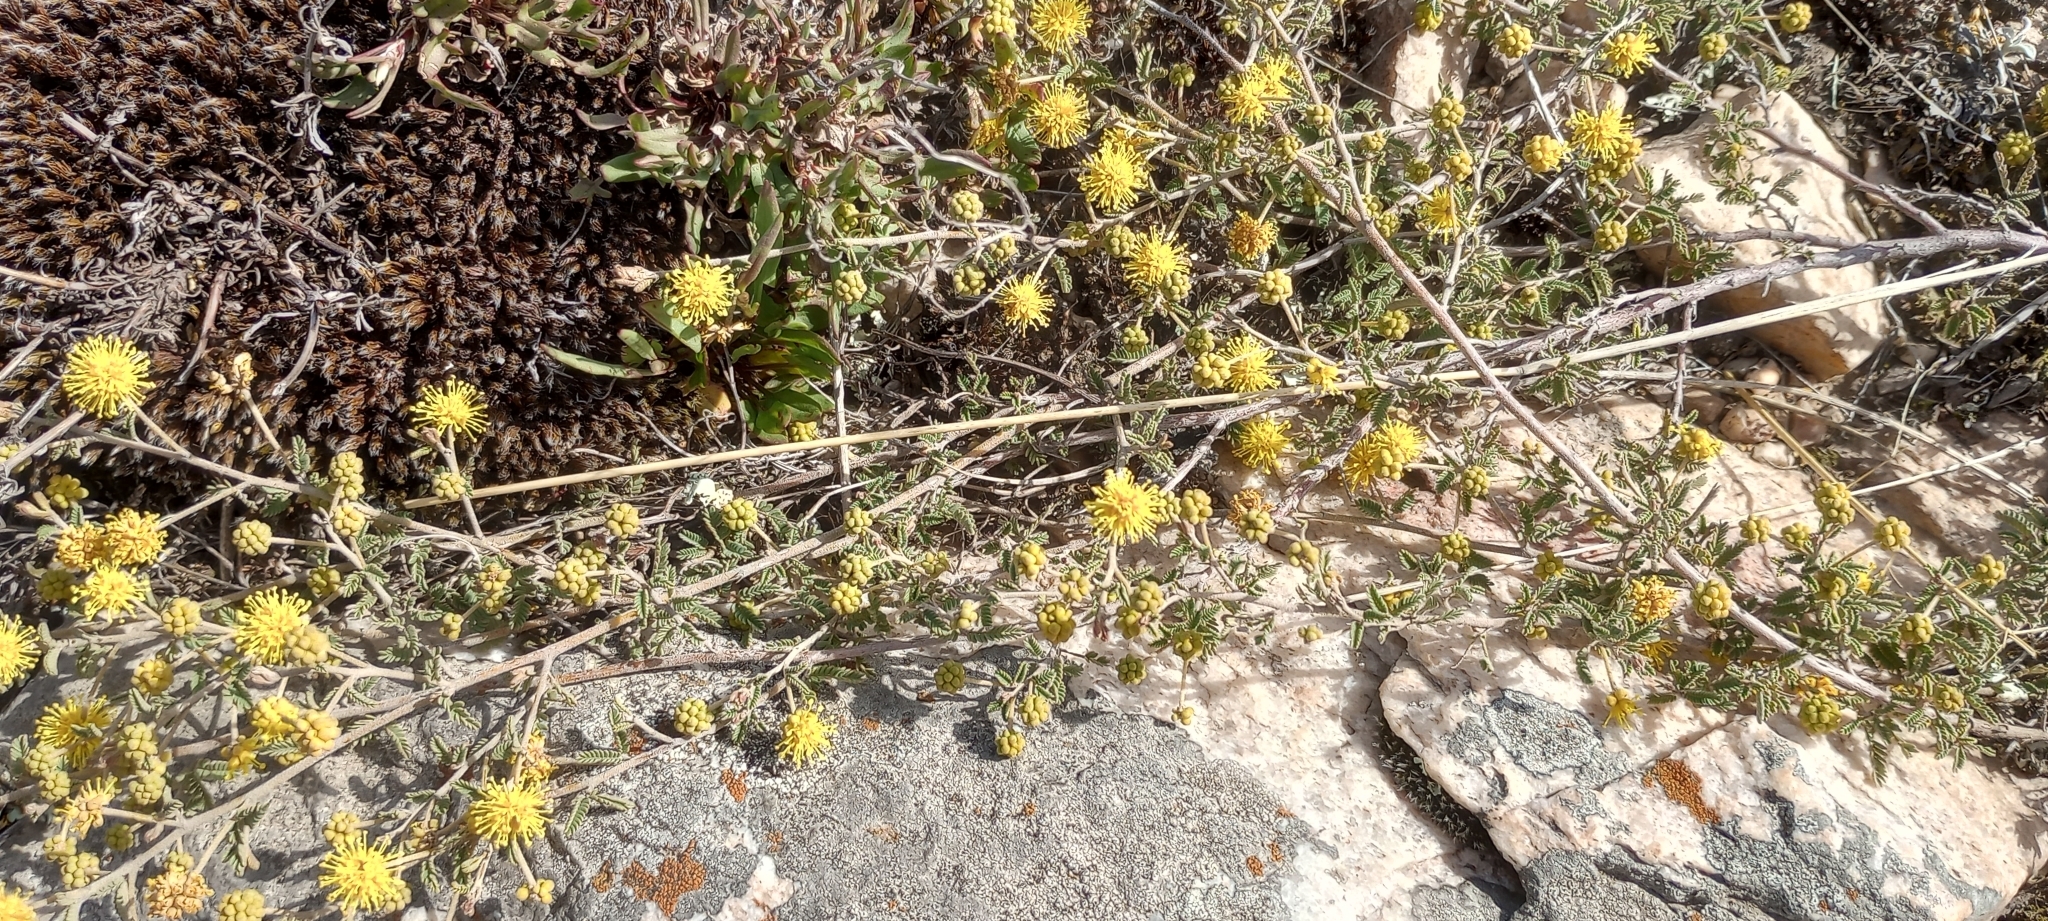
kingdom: Plantae
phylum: Tracheophyta
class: Magnoliopsida
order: Fabales
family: Fabaceae
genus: Mimosa
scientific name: Mimosa rocae
